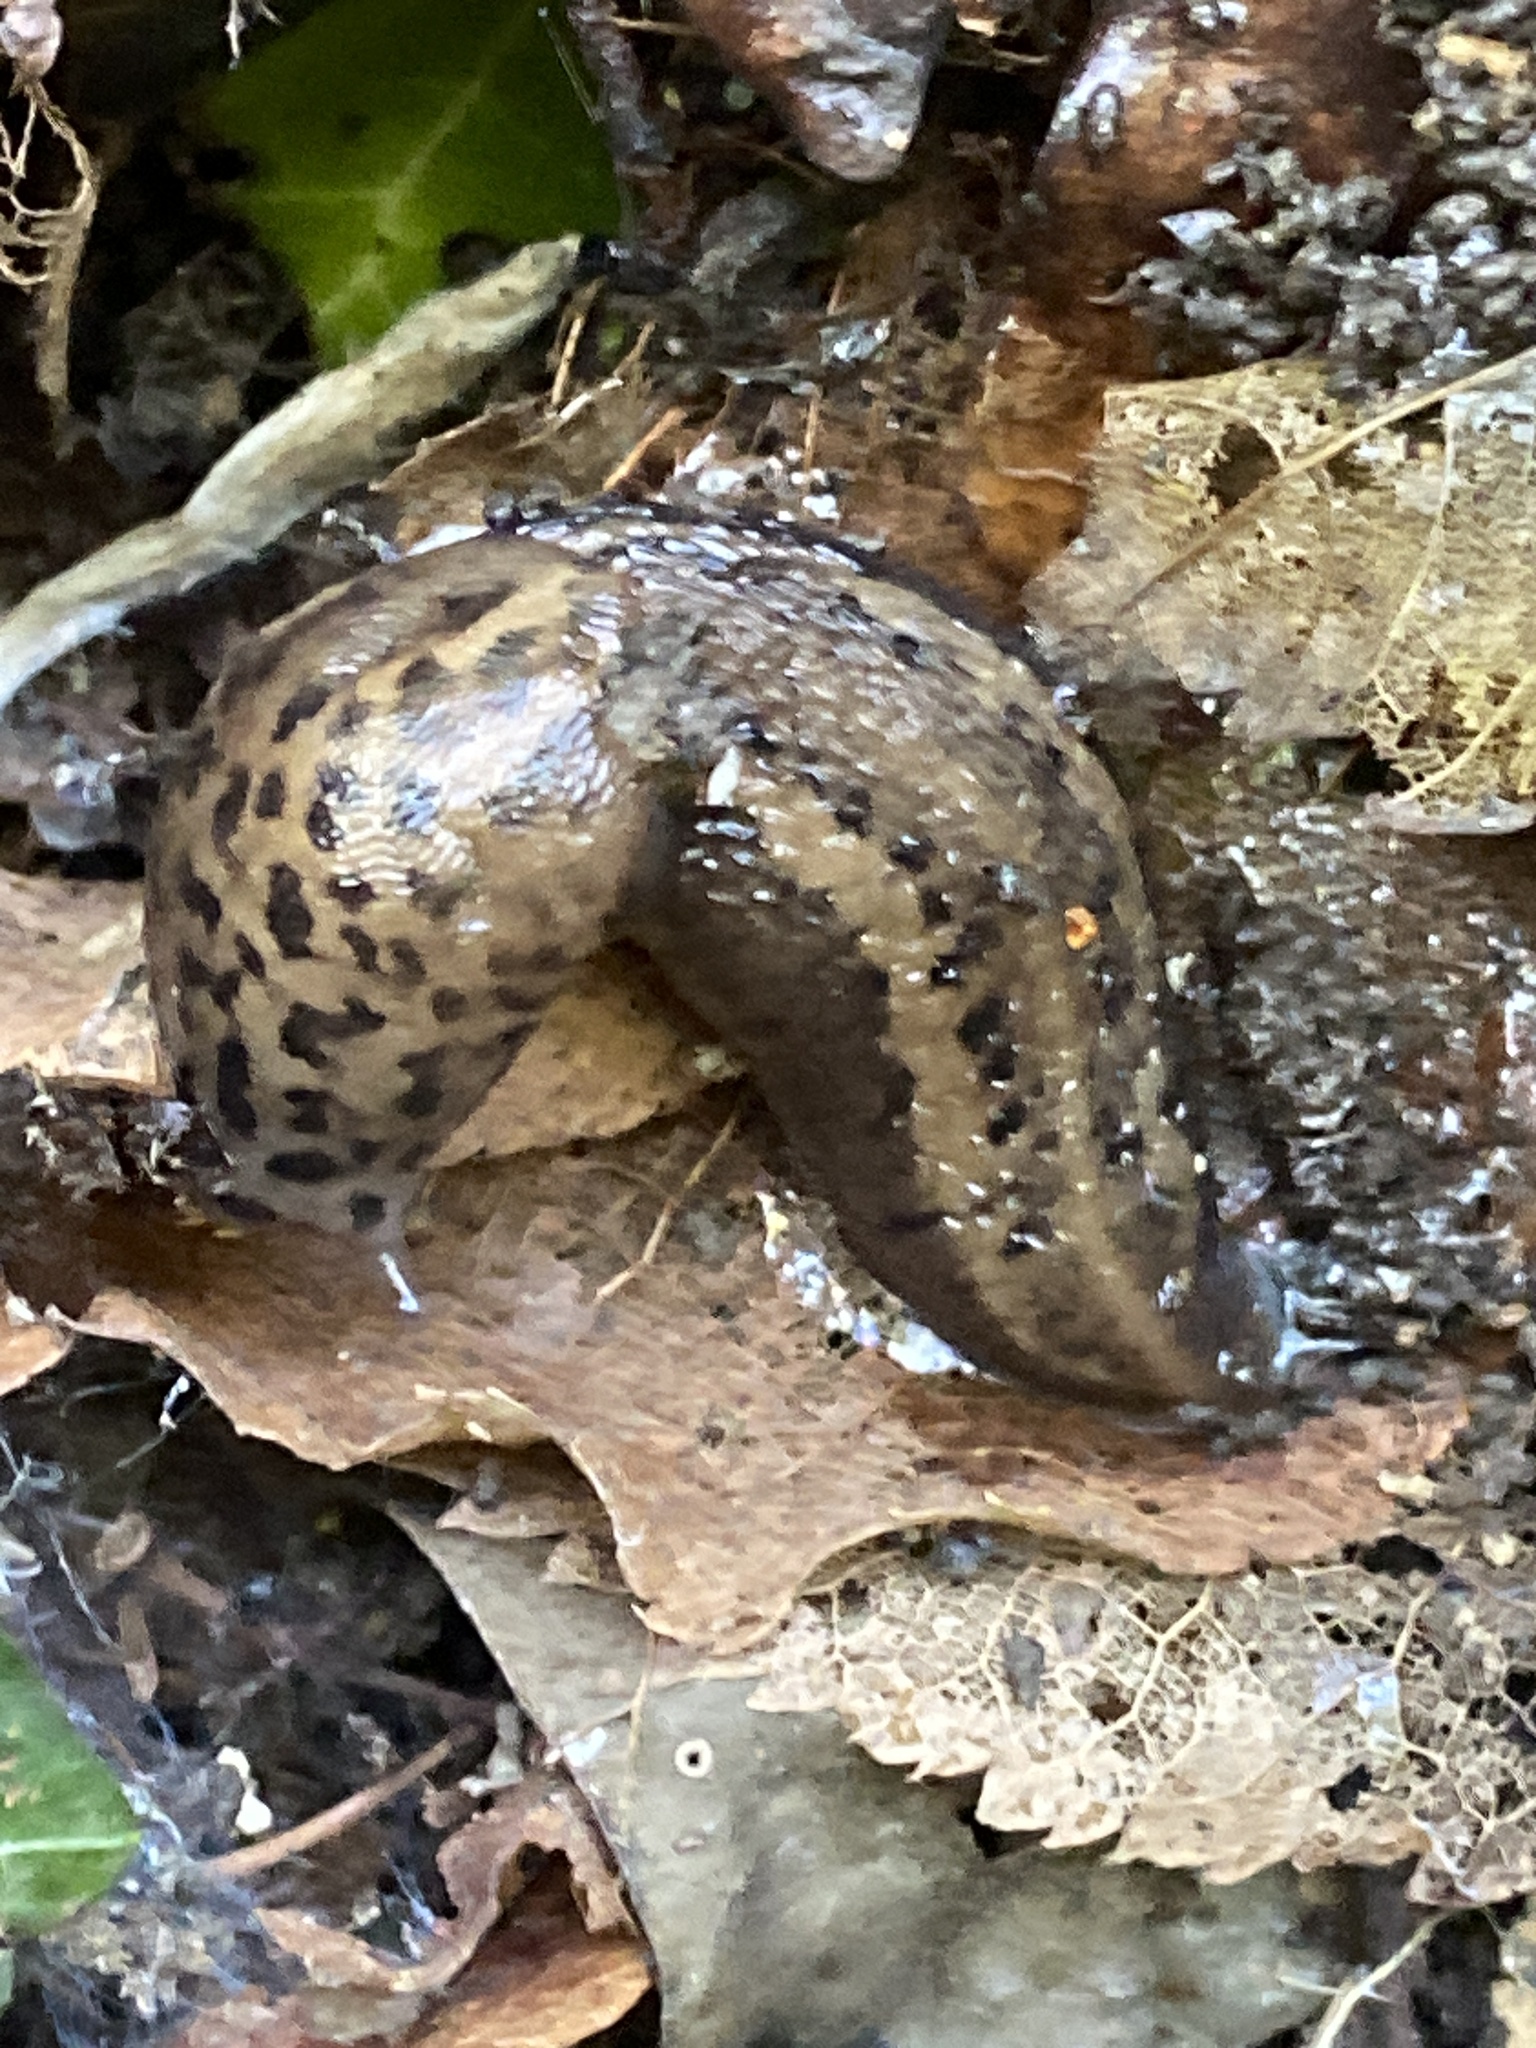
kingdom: Animalia
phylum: Mollusca
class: Gastropoda
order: Stylommatophora
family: Limacidae
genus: Limax
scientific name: Limax maximus
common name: Great grey slug
